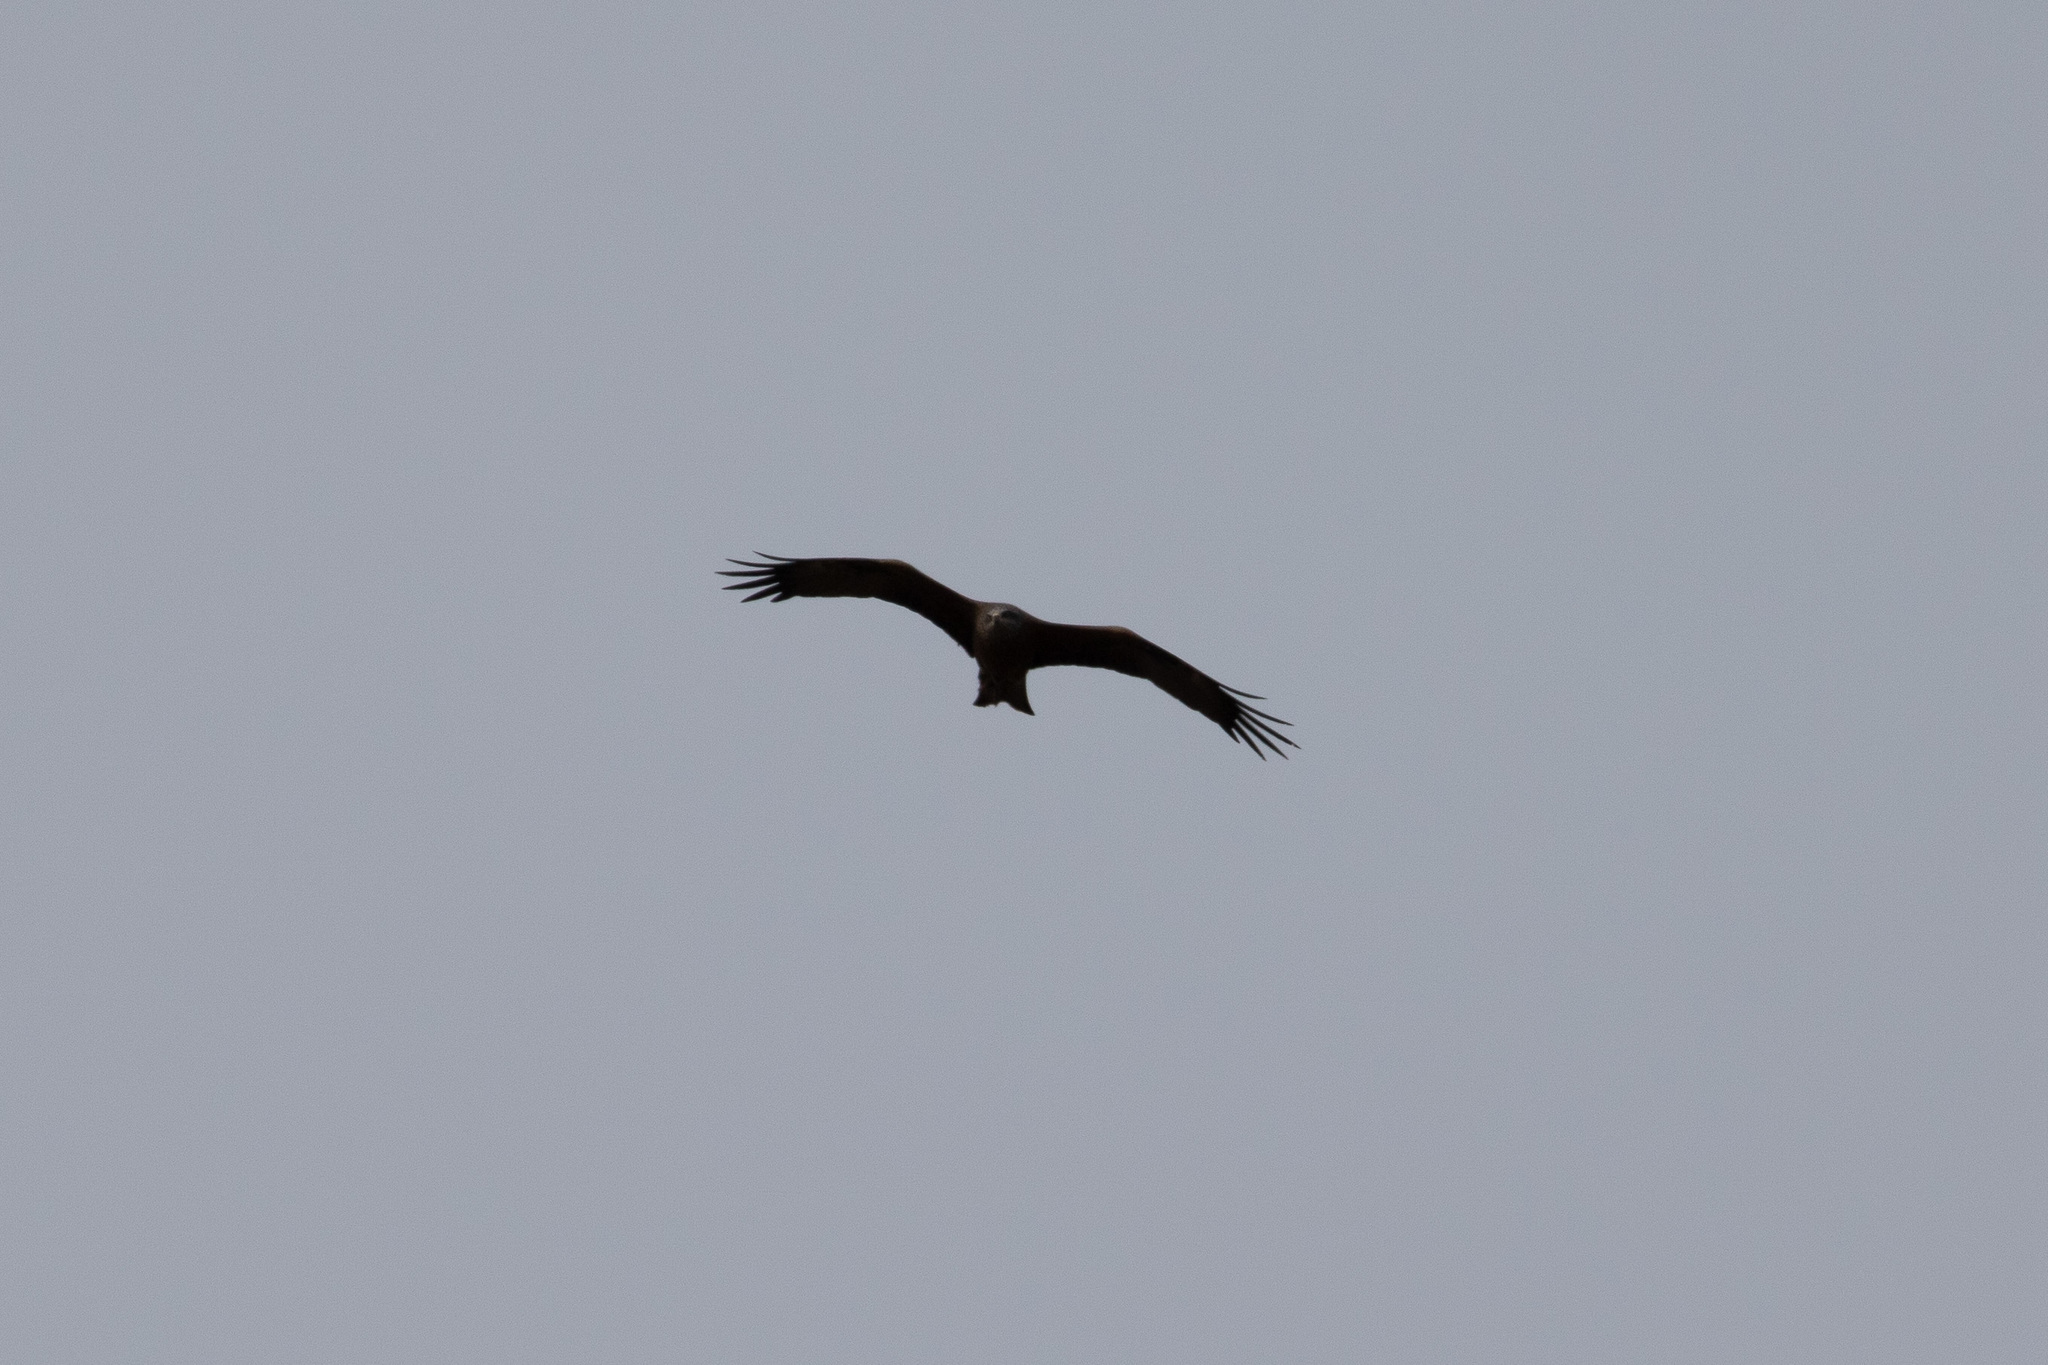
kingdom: Animalia
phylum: Chordata
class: Aves
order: Accipitriformes
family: Accipitridae
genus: Milvus
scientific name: Milvus migrans
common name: Black kite
